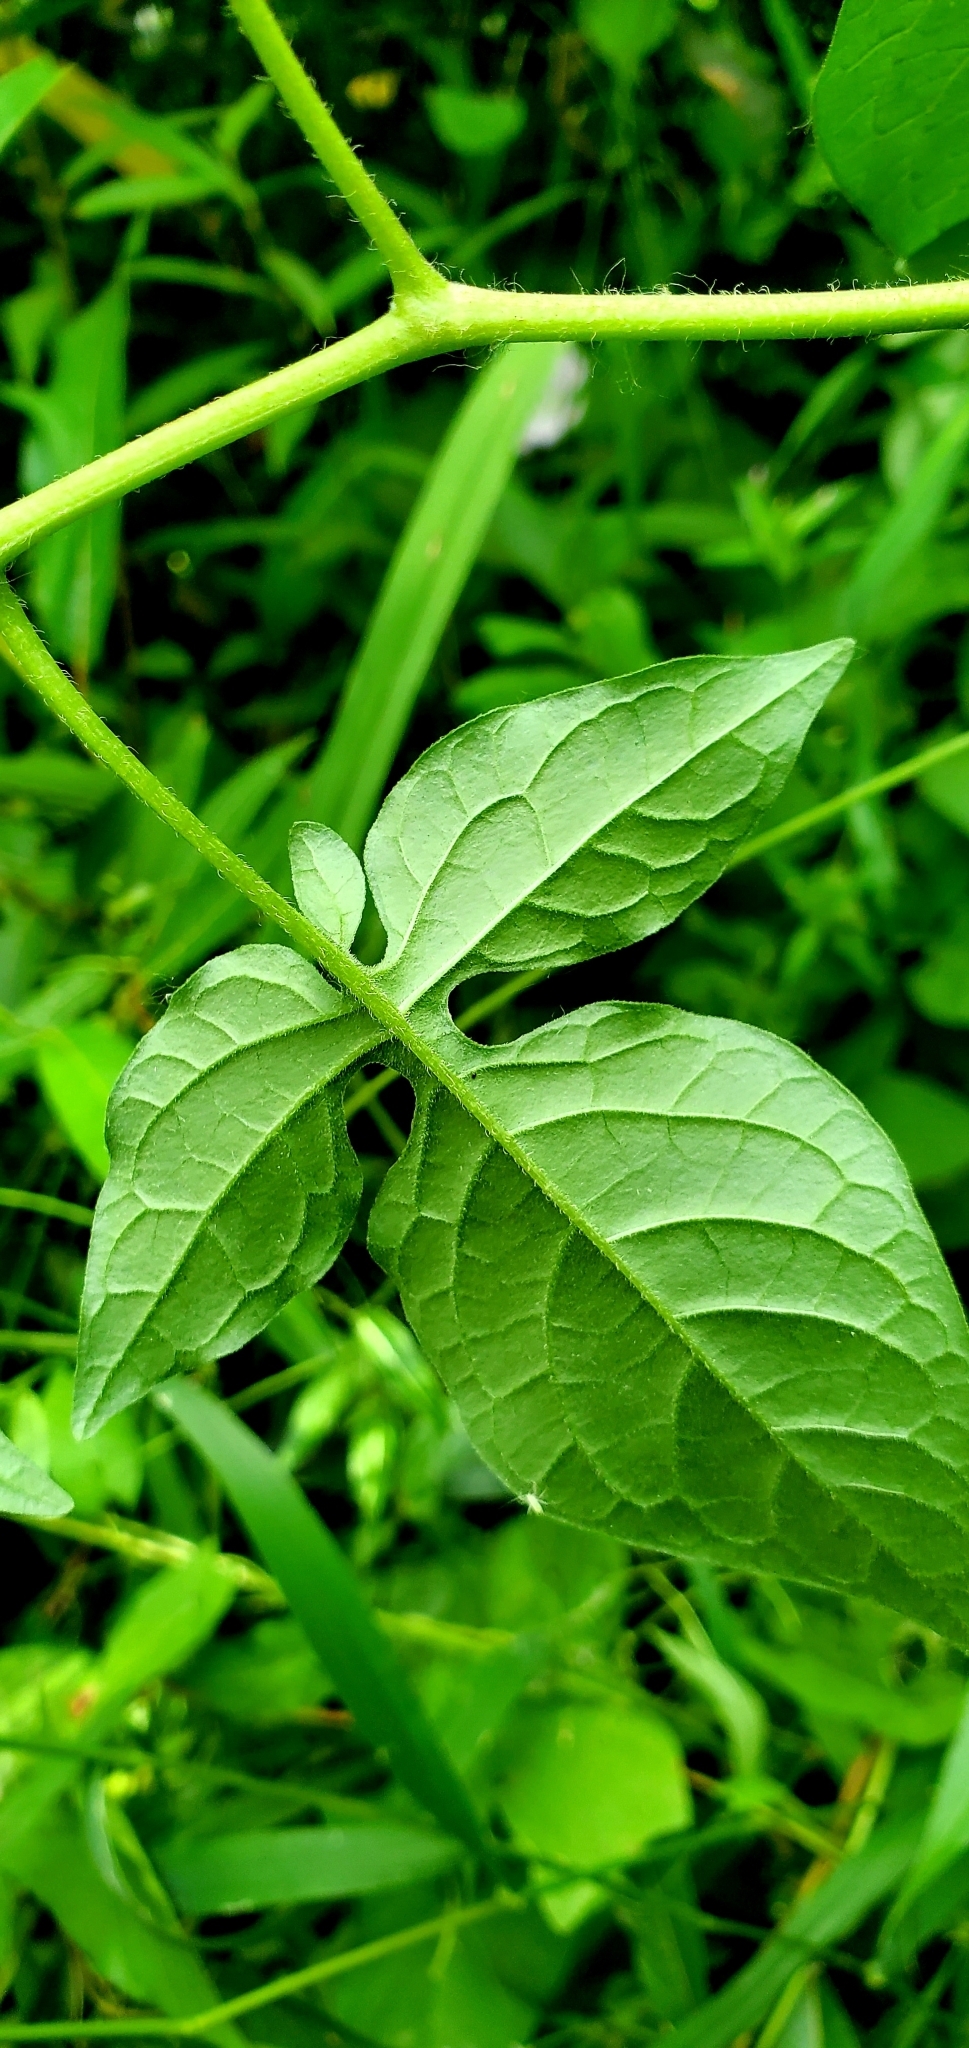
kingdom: Plantae
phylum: Tracheophyta
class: Magnoliopsida
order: Solanales
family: Solanaceae
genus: Solanum
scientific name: Solanum dulcamara
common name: Climbing nightshade
